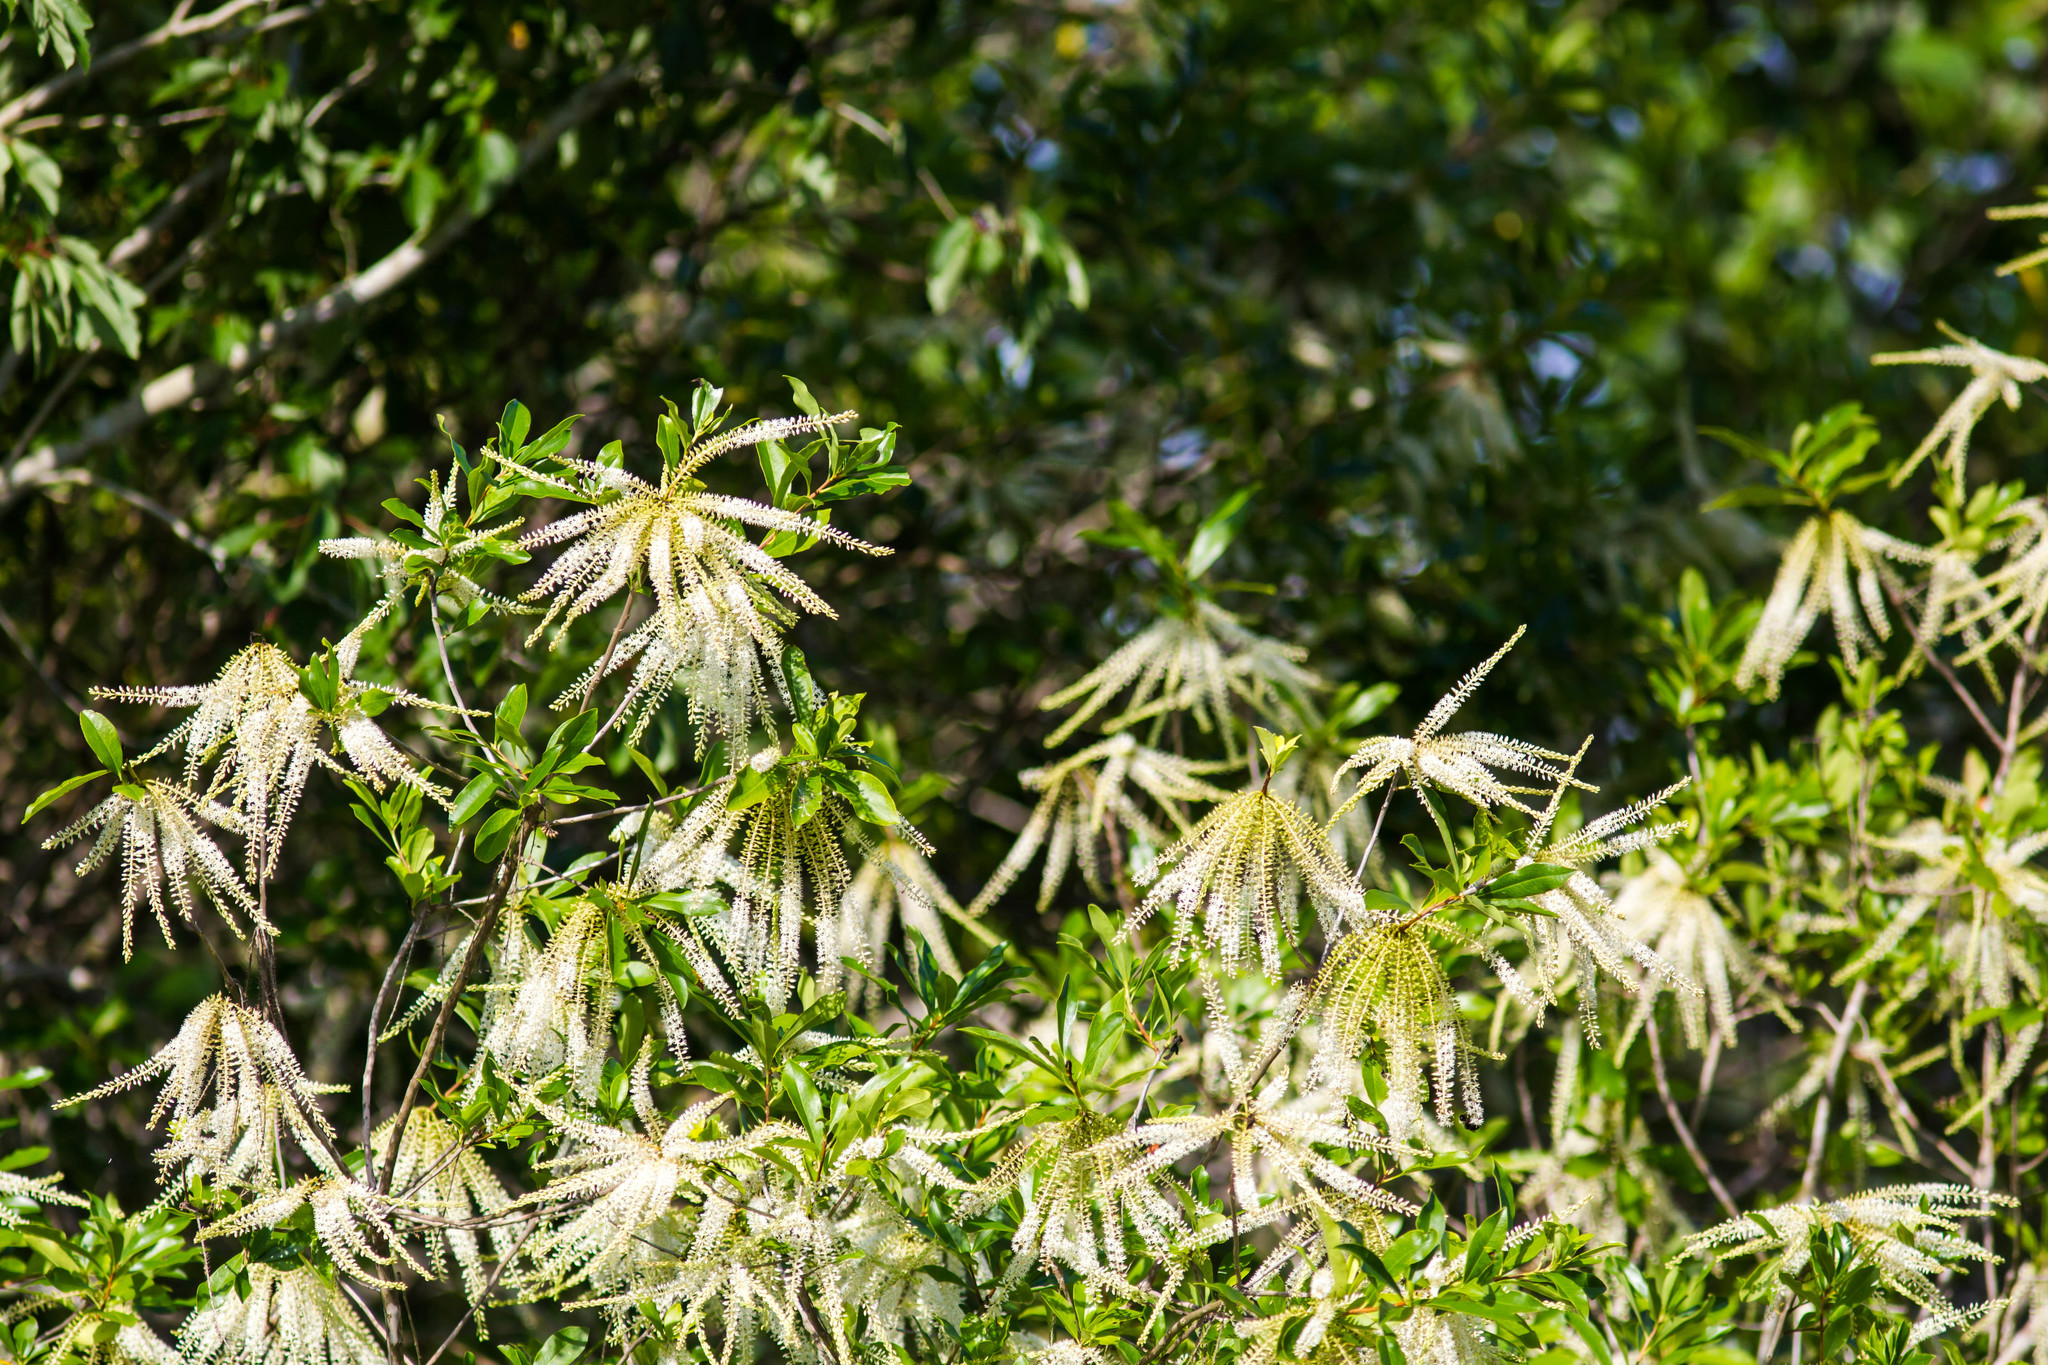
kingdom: Plantae
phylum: Tracheophyta
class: Magnoliopsida
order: Ericales
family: Cyrillaceae
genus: Cyrilla
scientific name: Cyrilla racemiflora
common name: Black titi
